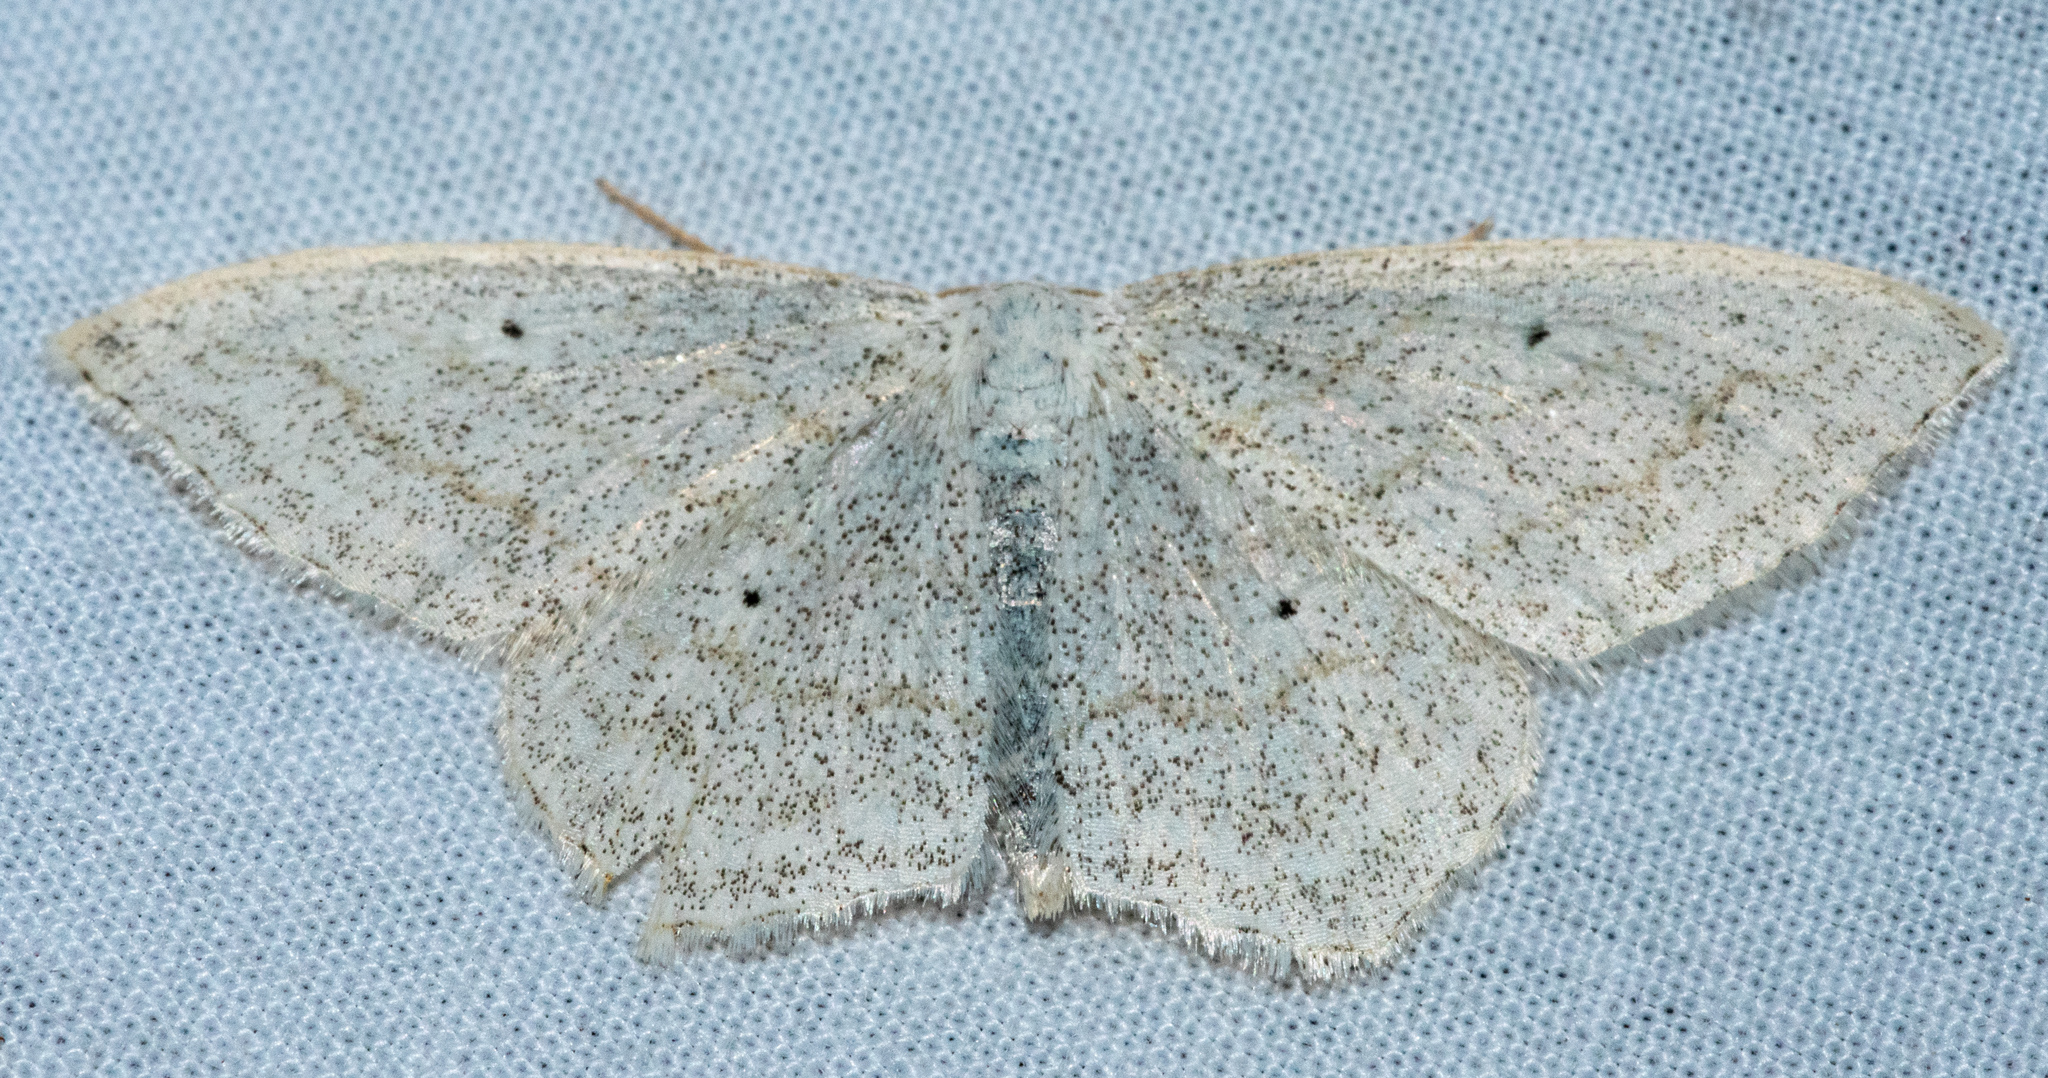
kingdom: Animalia
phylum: Arthropoda
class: Insecta
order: Lepidoptera
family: Geometridae
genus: Scopula
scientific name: Scopula junctaria
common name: Simple wave
